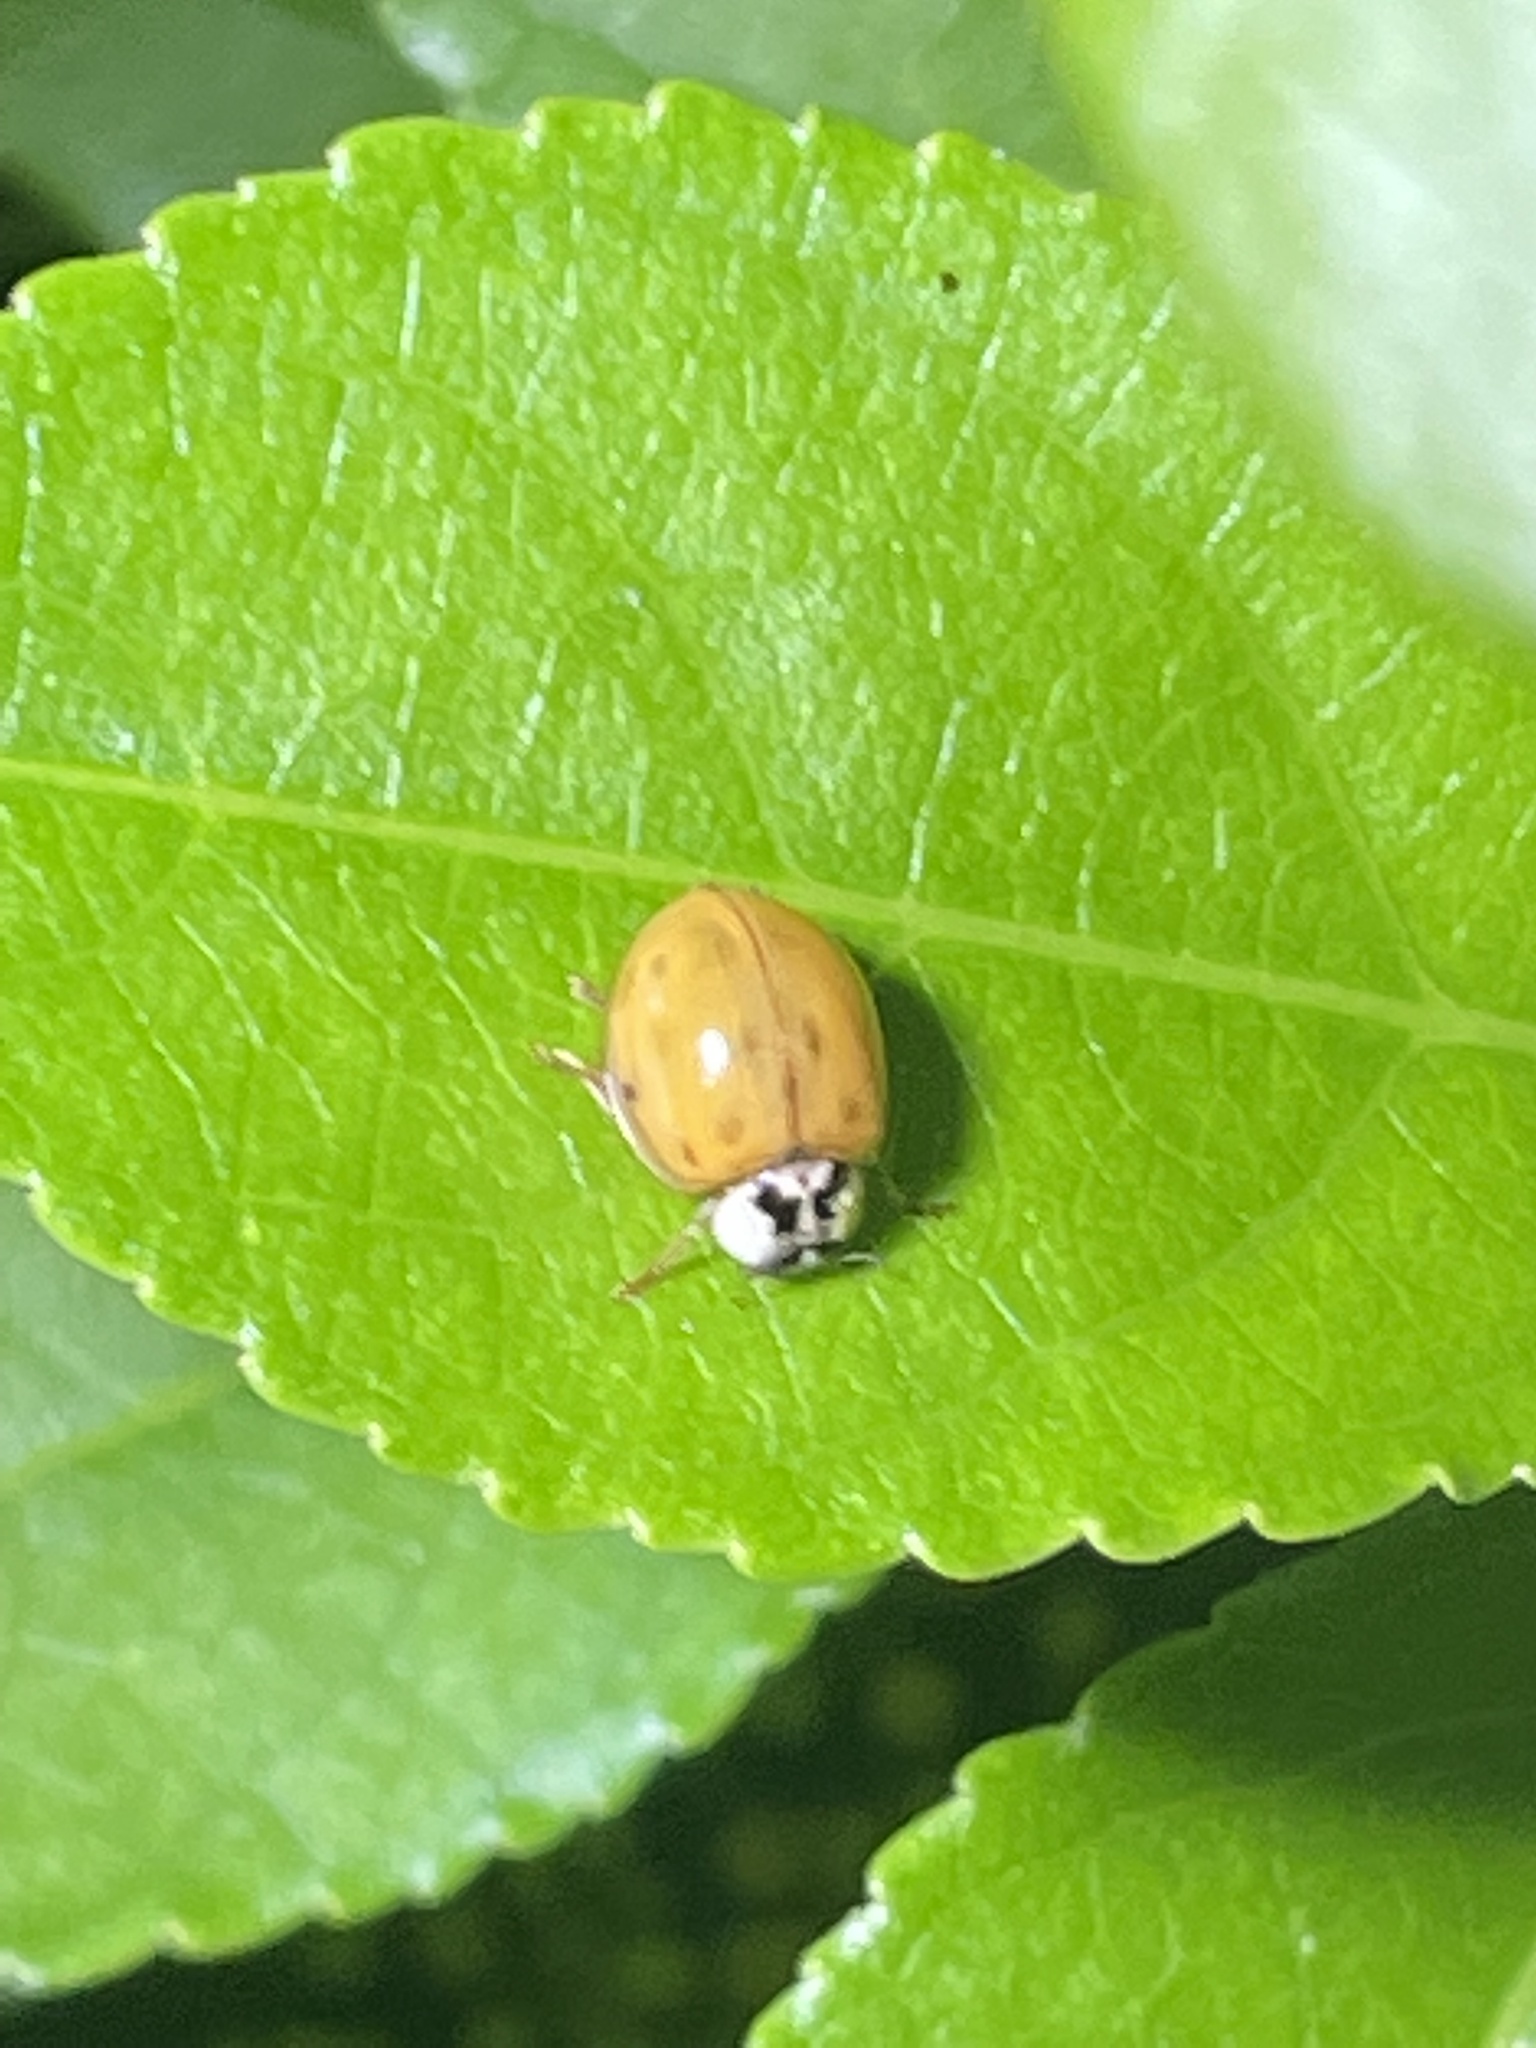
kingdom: Animalia
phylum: Arthropoda
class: Insecta
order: Coleoptera
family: Coccinellidae
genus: Harmonia
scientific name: Harmonia axyridis
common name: Harlequin ladybird
